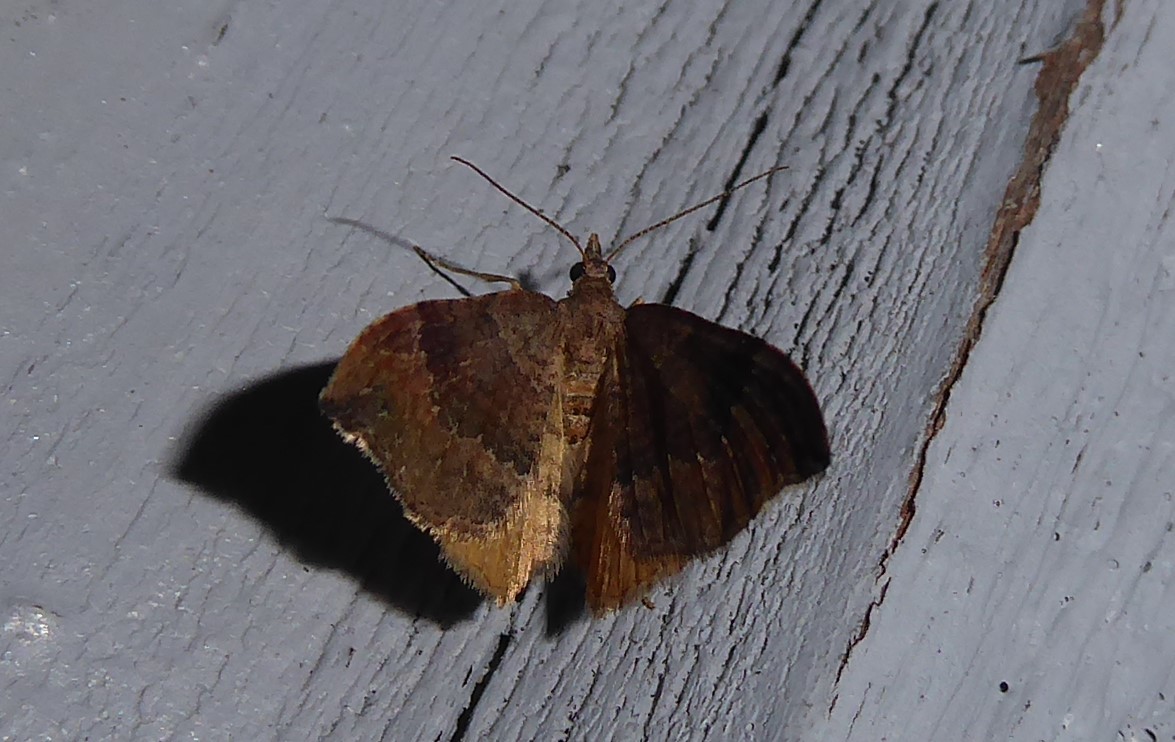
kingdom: Animalia
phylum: Arthropoda
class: Insecta
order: Lepidoptera
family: Geometridae
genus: Homodotis
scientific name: Homodotis megaspilata
